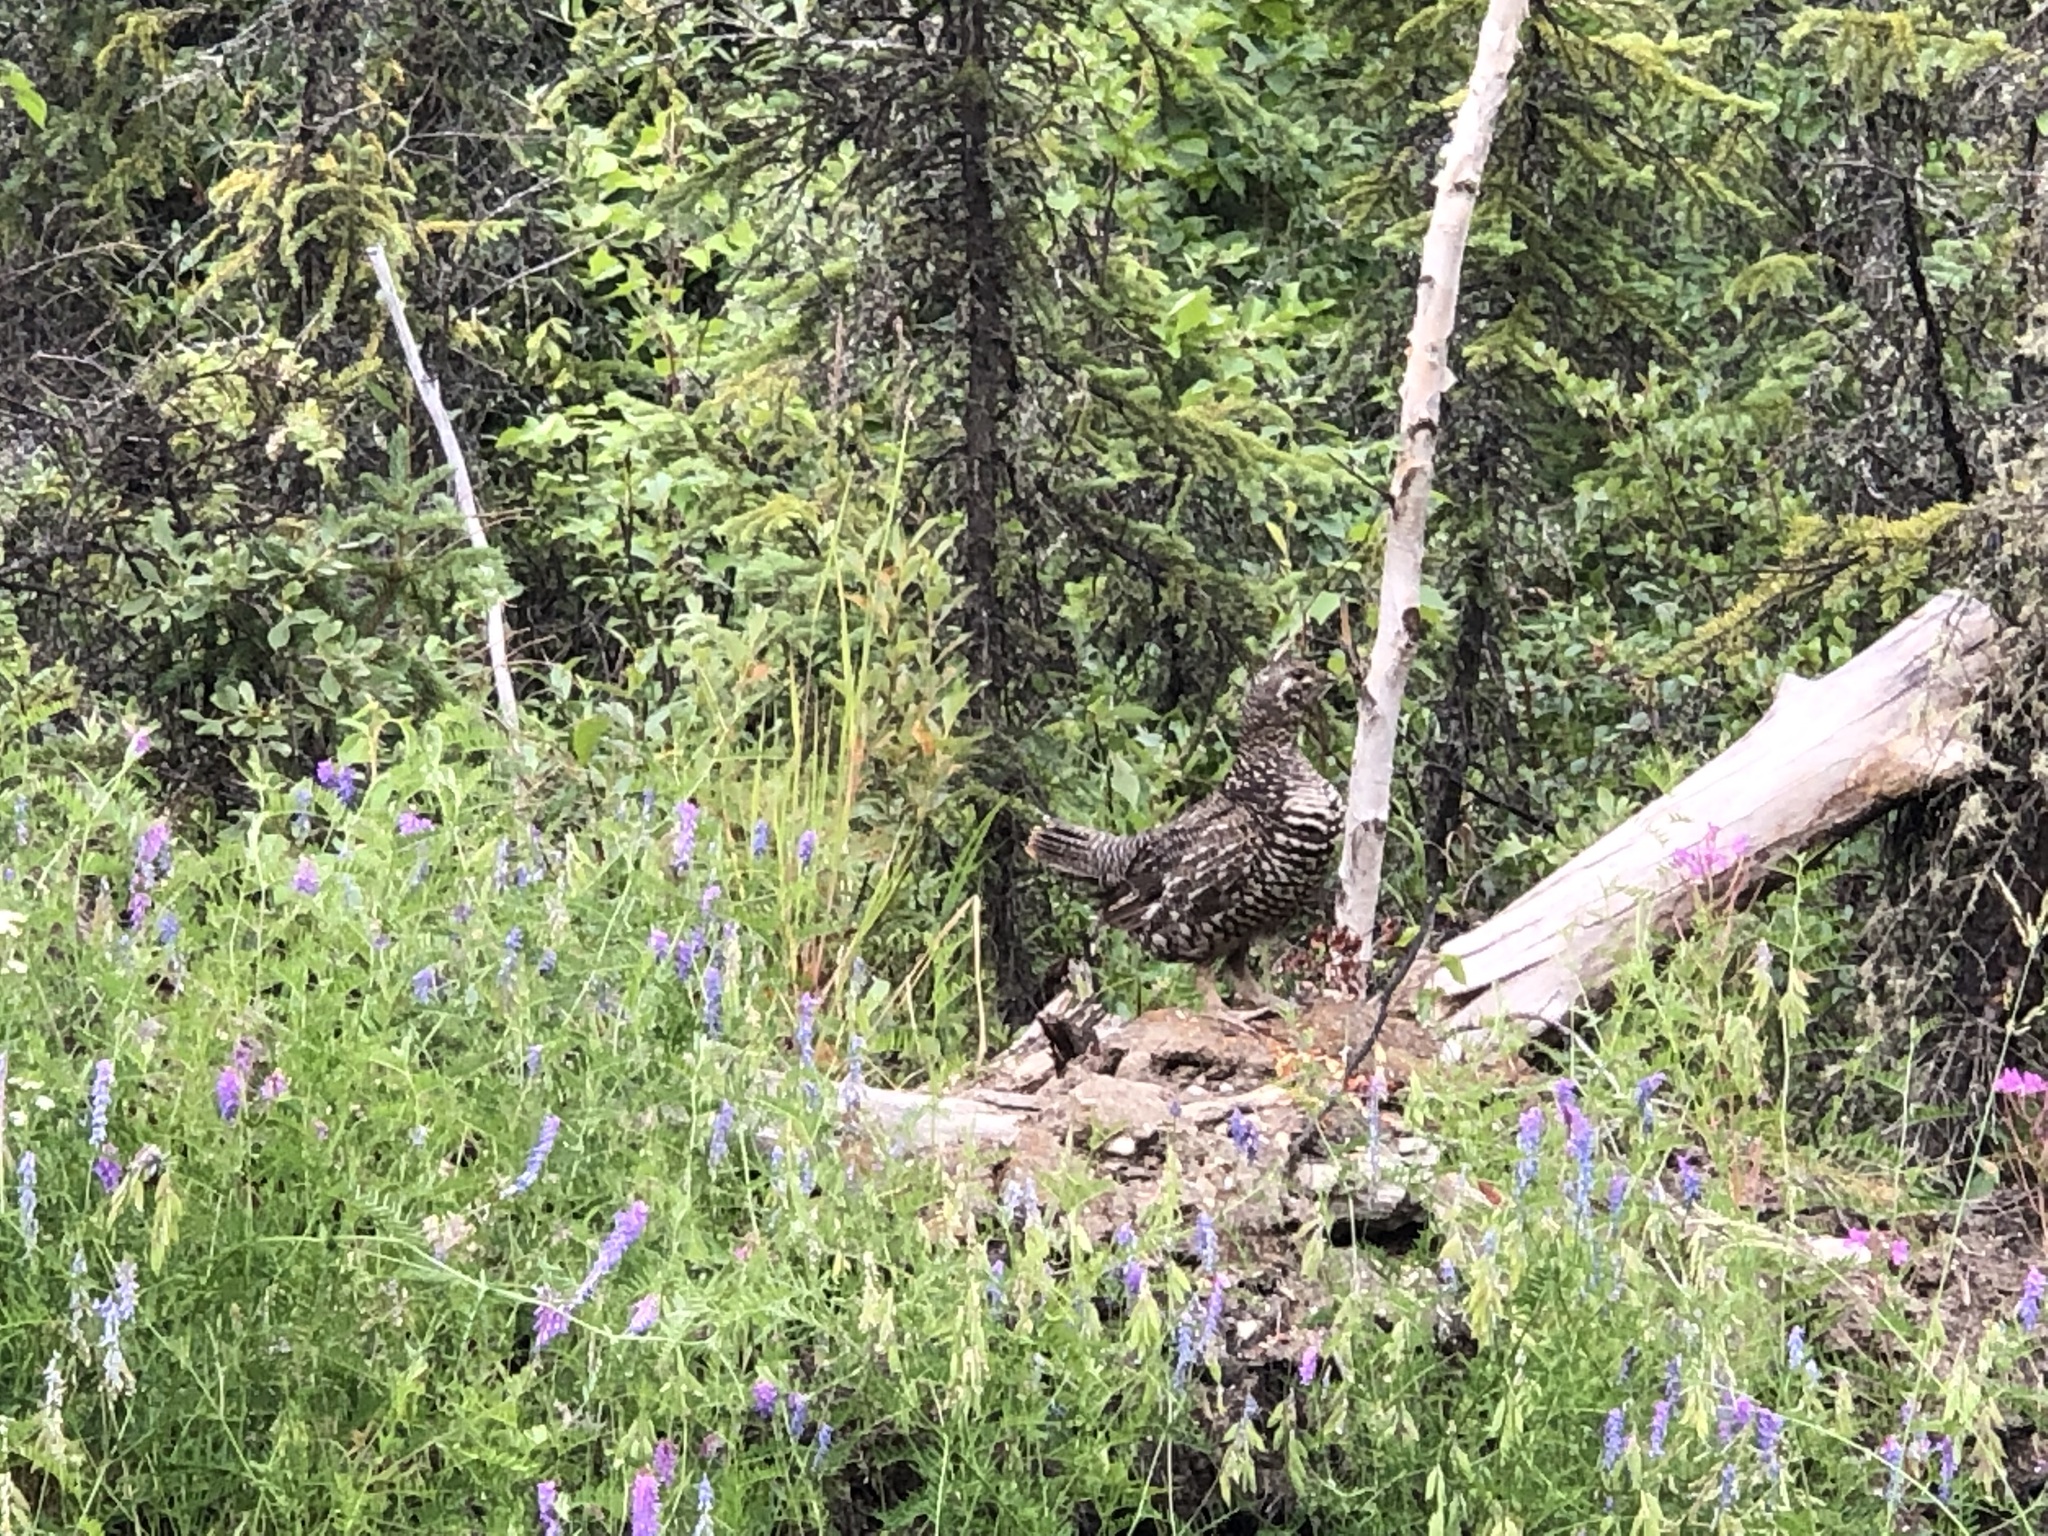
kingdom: Animalia
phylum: Chordata
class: Aves
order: Galliformes
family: Phasianidae
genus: Canachites
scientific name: Canachites canadensis
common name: Spruce grouse
